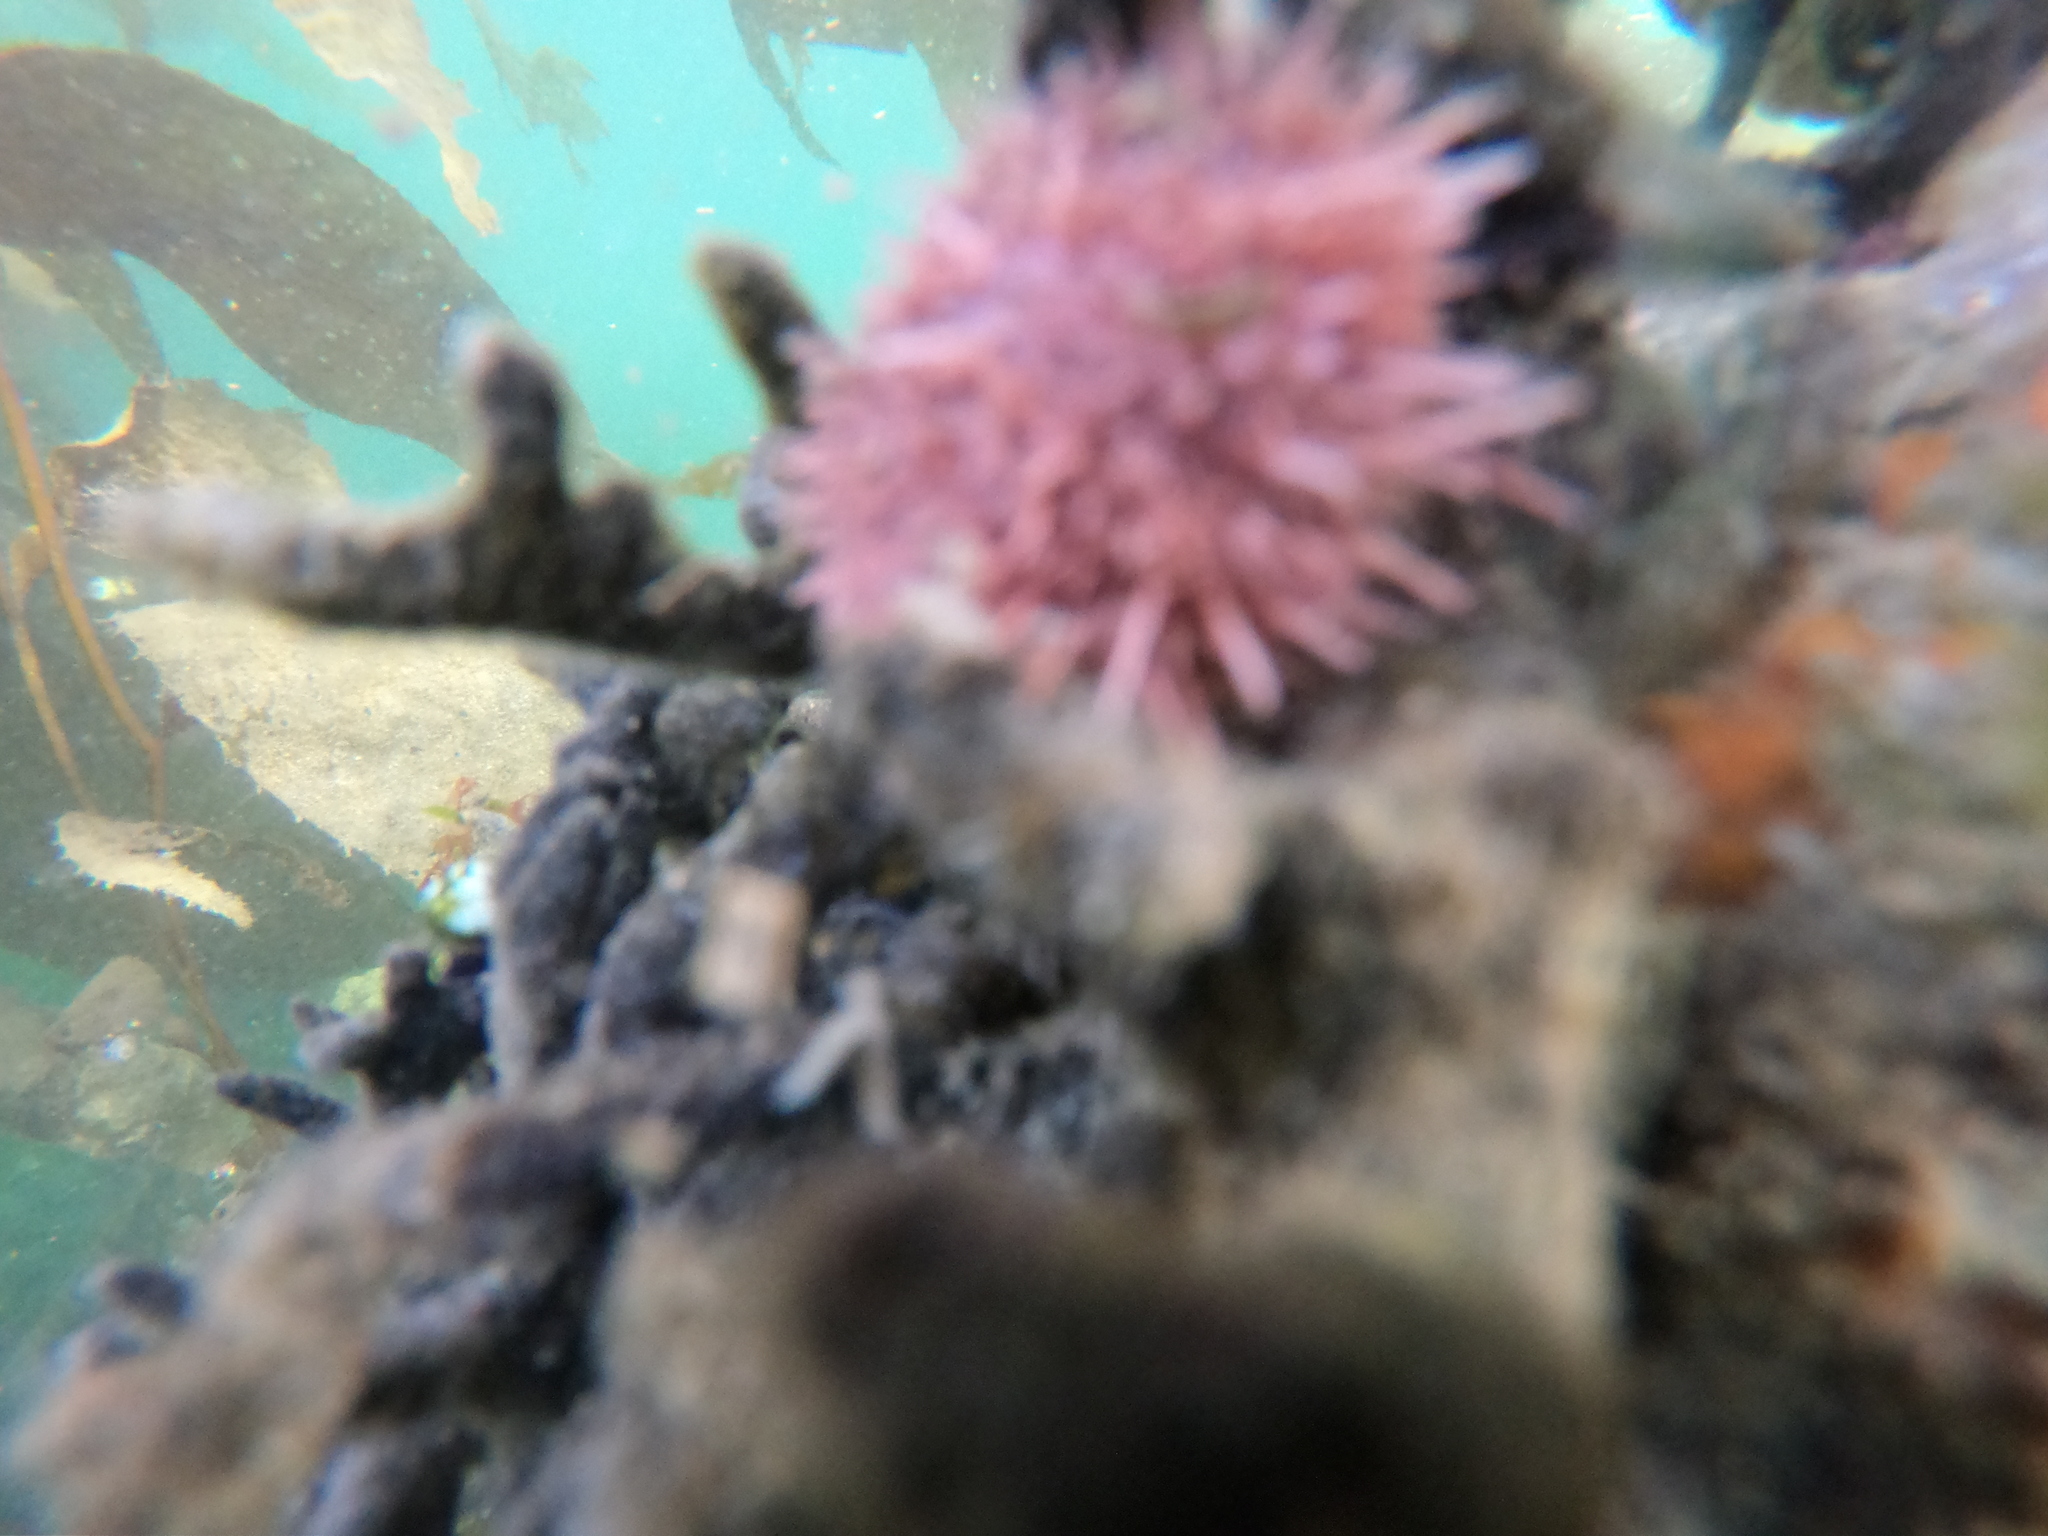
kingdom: Animalia
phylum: Echinodermata
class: Echinoidea
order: Camarodonta
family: Temnopleuridae
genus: Pseudechinus
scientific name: Pseudechinus magellanicus
